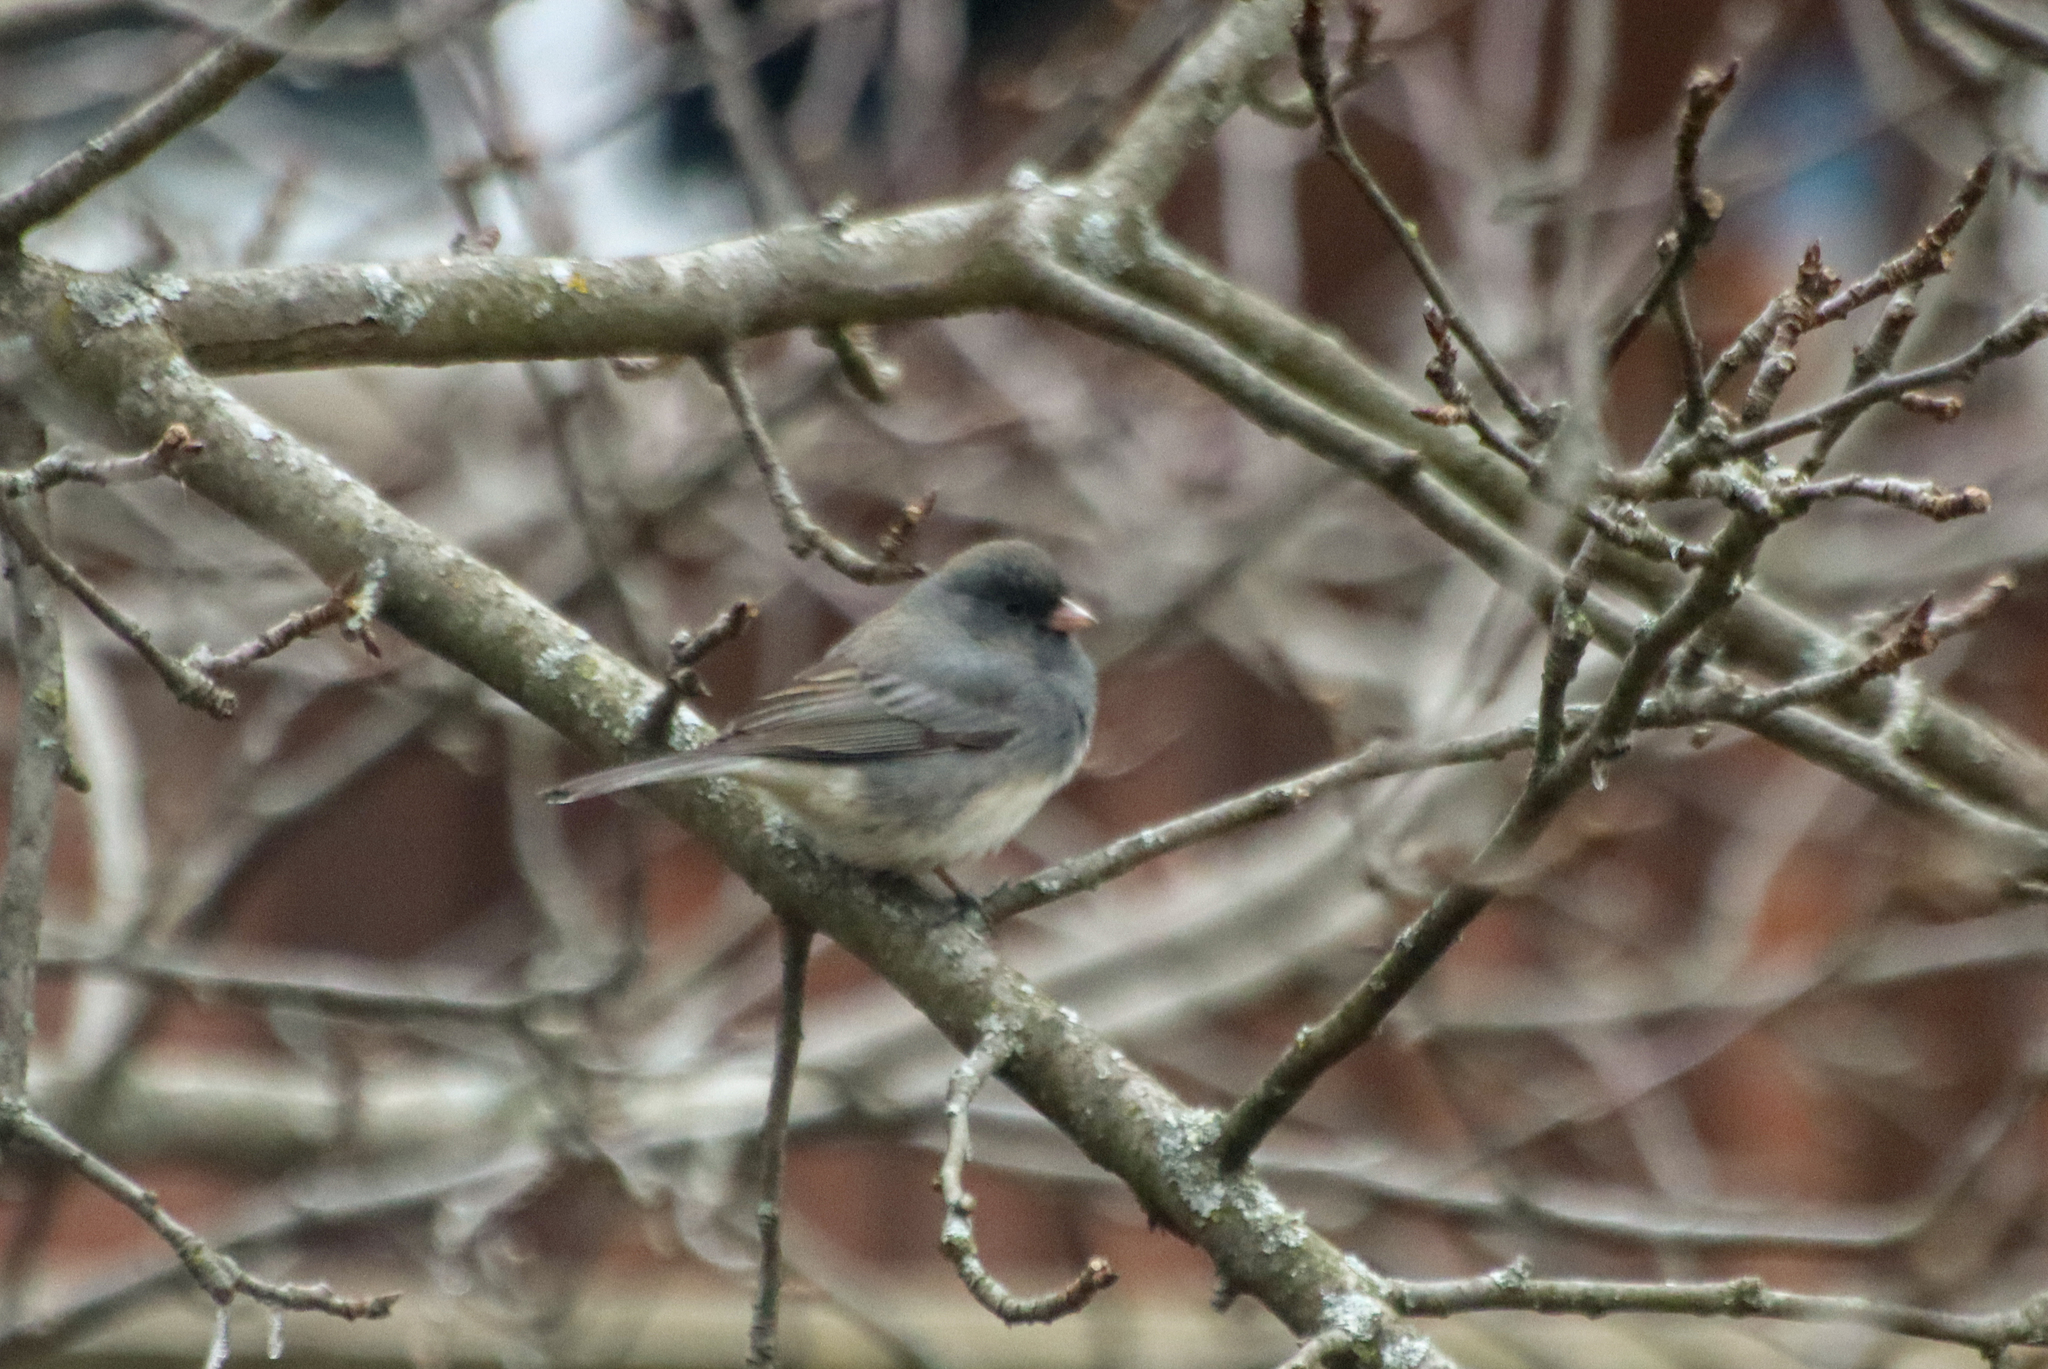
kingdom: Animalia
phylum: Chordata
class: Aves
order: Passeriformes
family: Passerellidae
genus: Junco
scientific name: Junco hyemalis
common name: Dark-eyed junco
